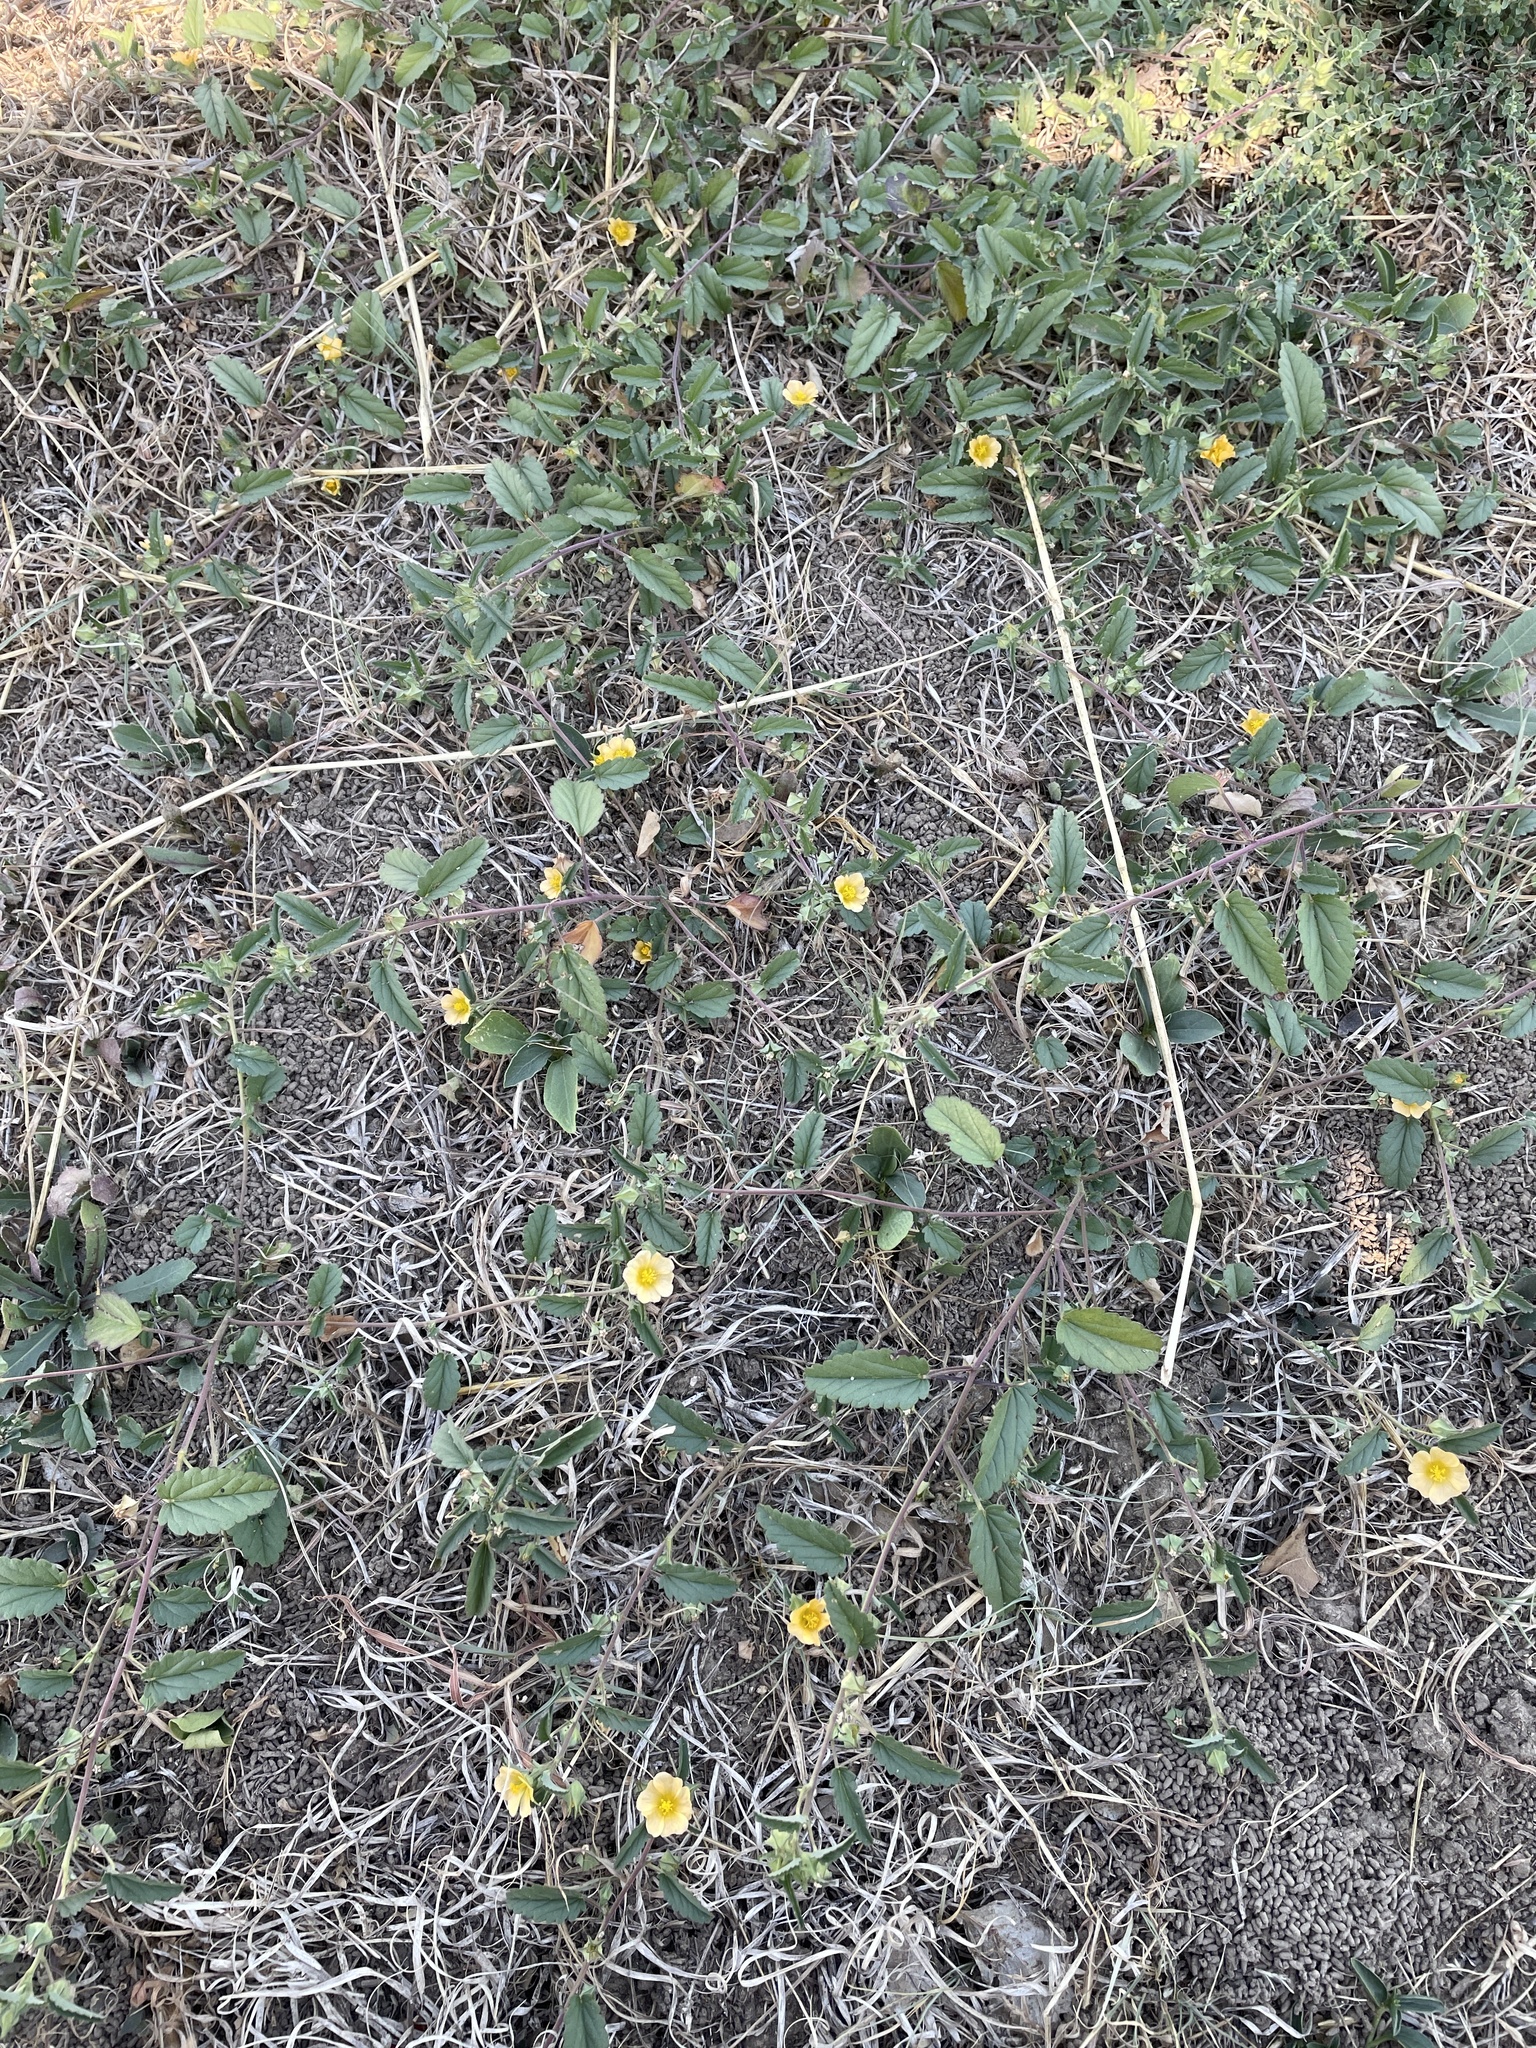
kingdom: Plantae
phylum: Tracheophyta
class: Magnoliopsida
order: Malvales
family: Malvaceae
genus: Sida
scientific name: Sida abutilifolia
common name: Spreading fanpetals
